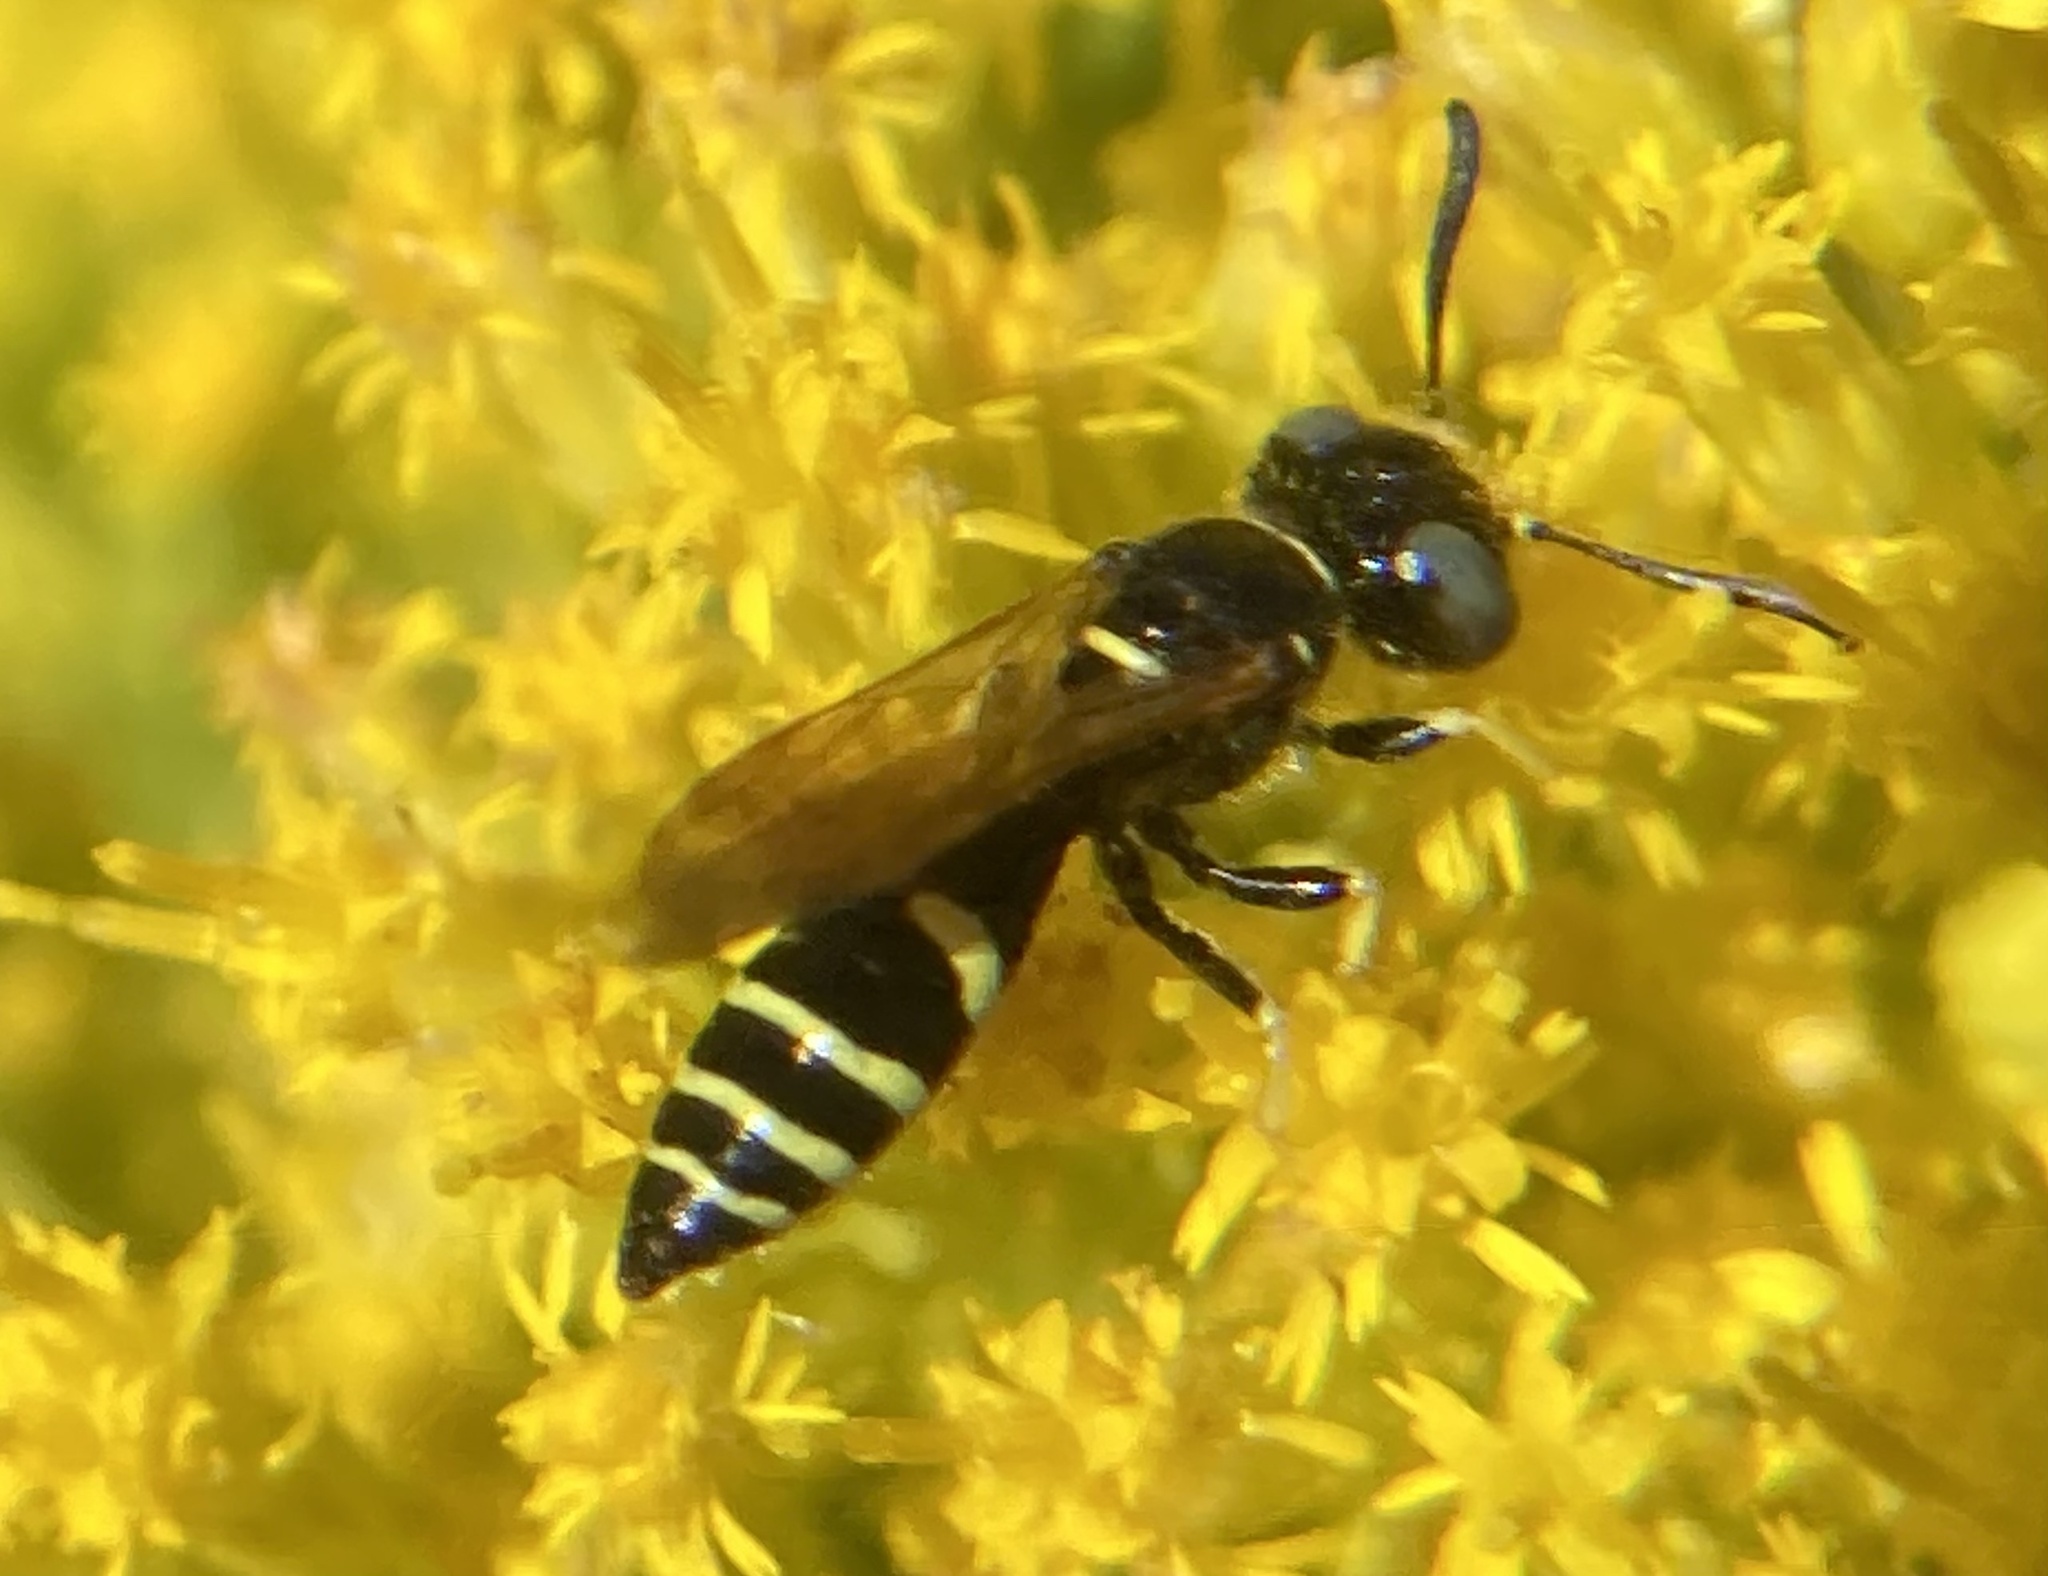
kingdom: Animalia
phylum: Arthropoda
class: Insecta
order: Hymenoptera
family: Crabronidae
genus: Philanthus
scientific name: Philanthus lepidus
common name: Pleasant beewolf
